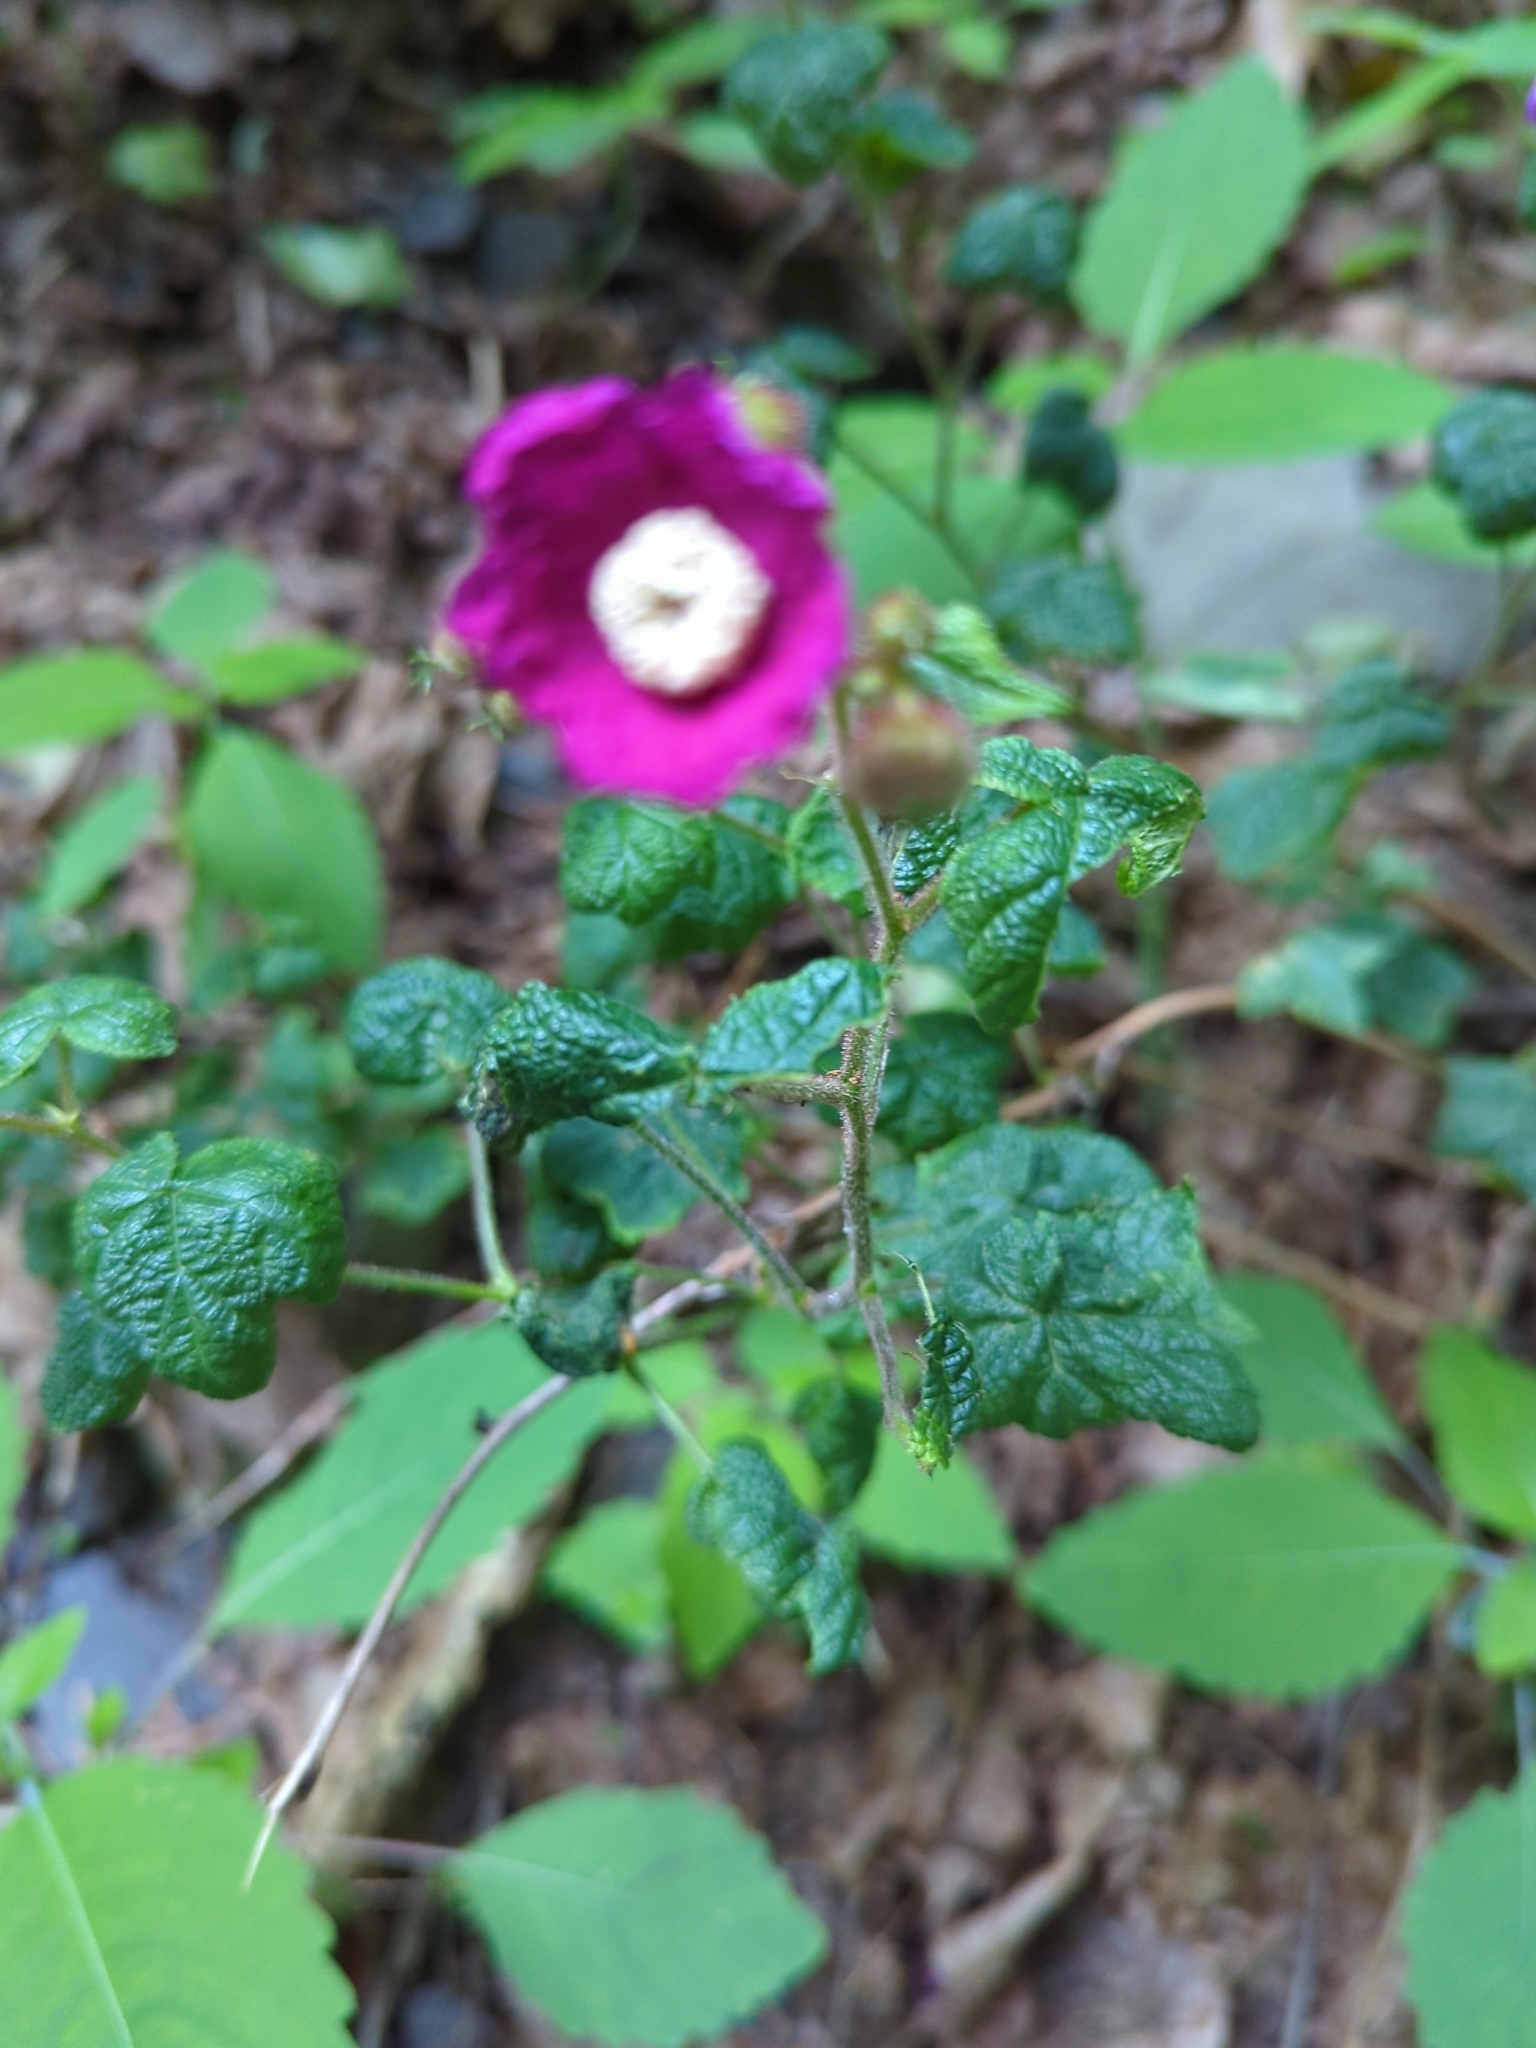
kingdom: Plantae
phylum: Tracheophyta
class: Magnoliopsida
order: Rosales
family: Rosaceae
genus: Rubus
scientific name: Rubus odoratus
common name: Purple-flowered raspberry
